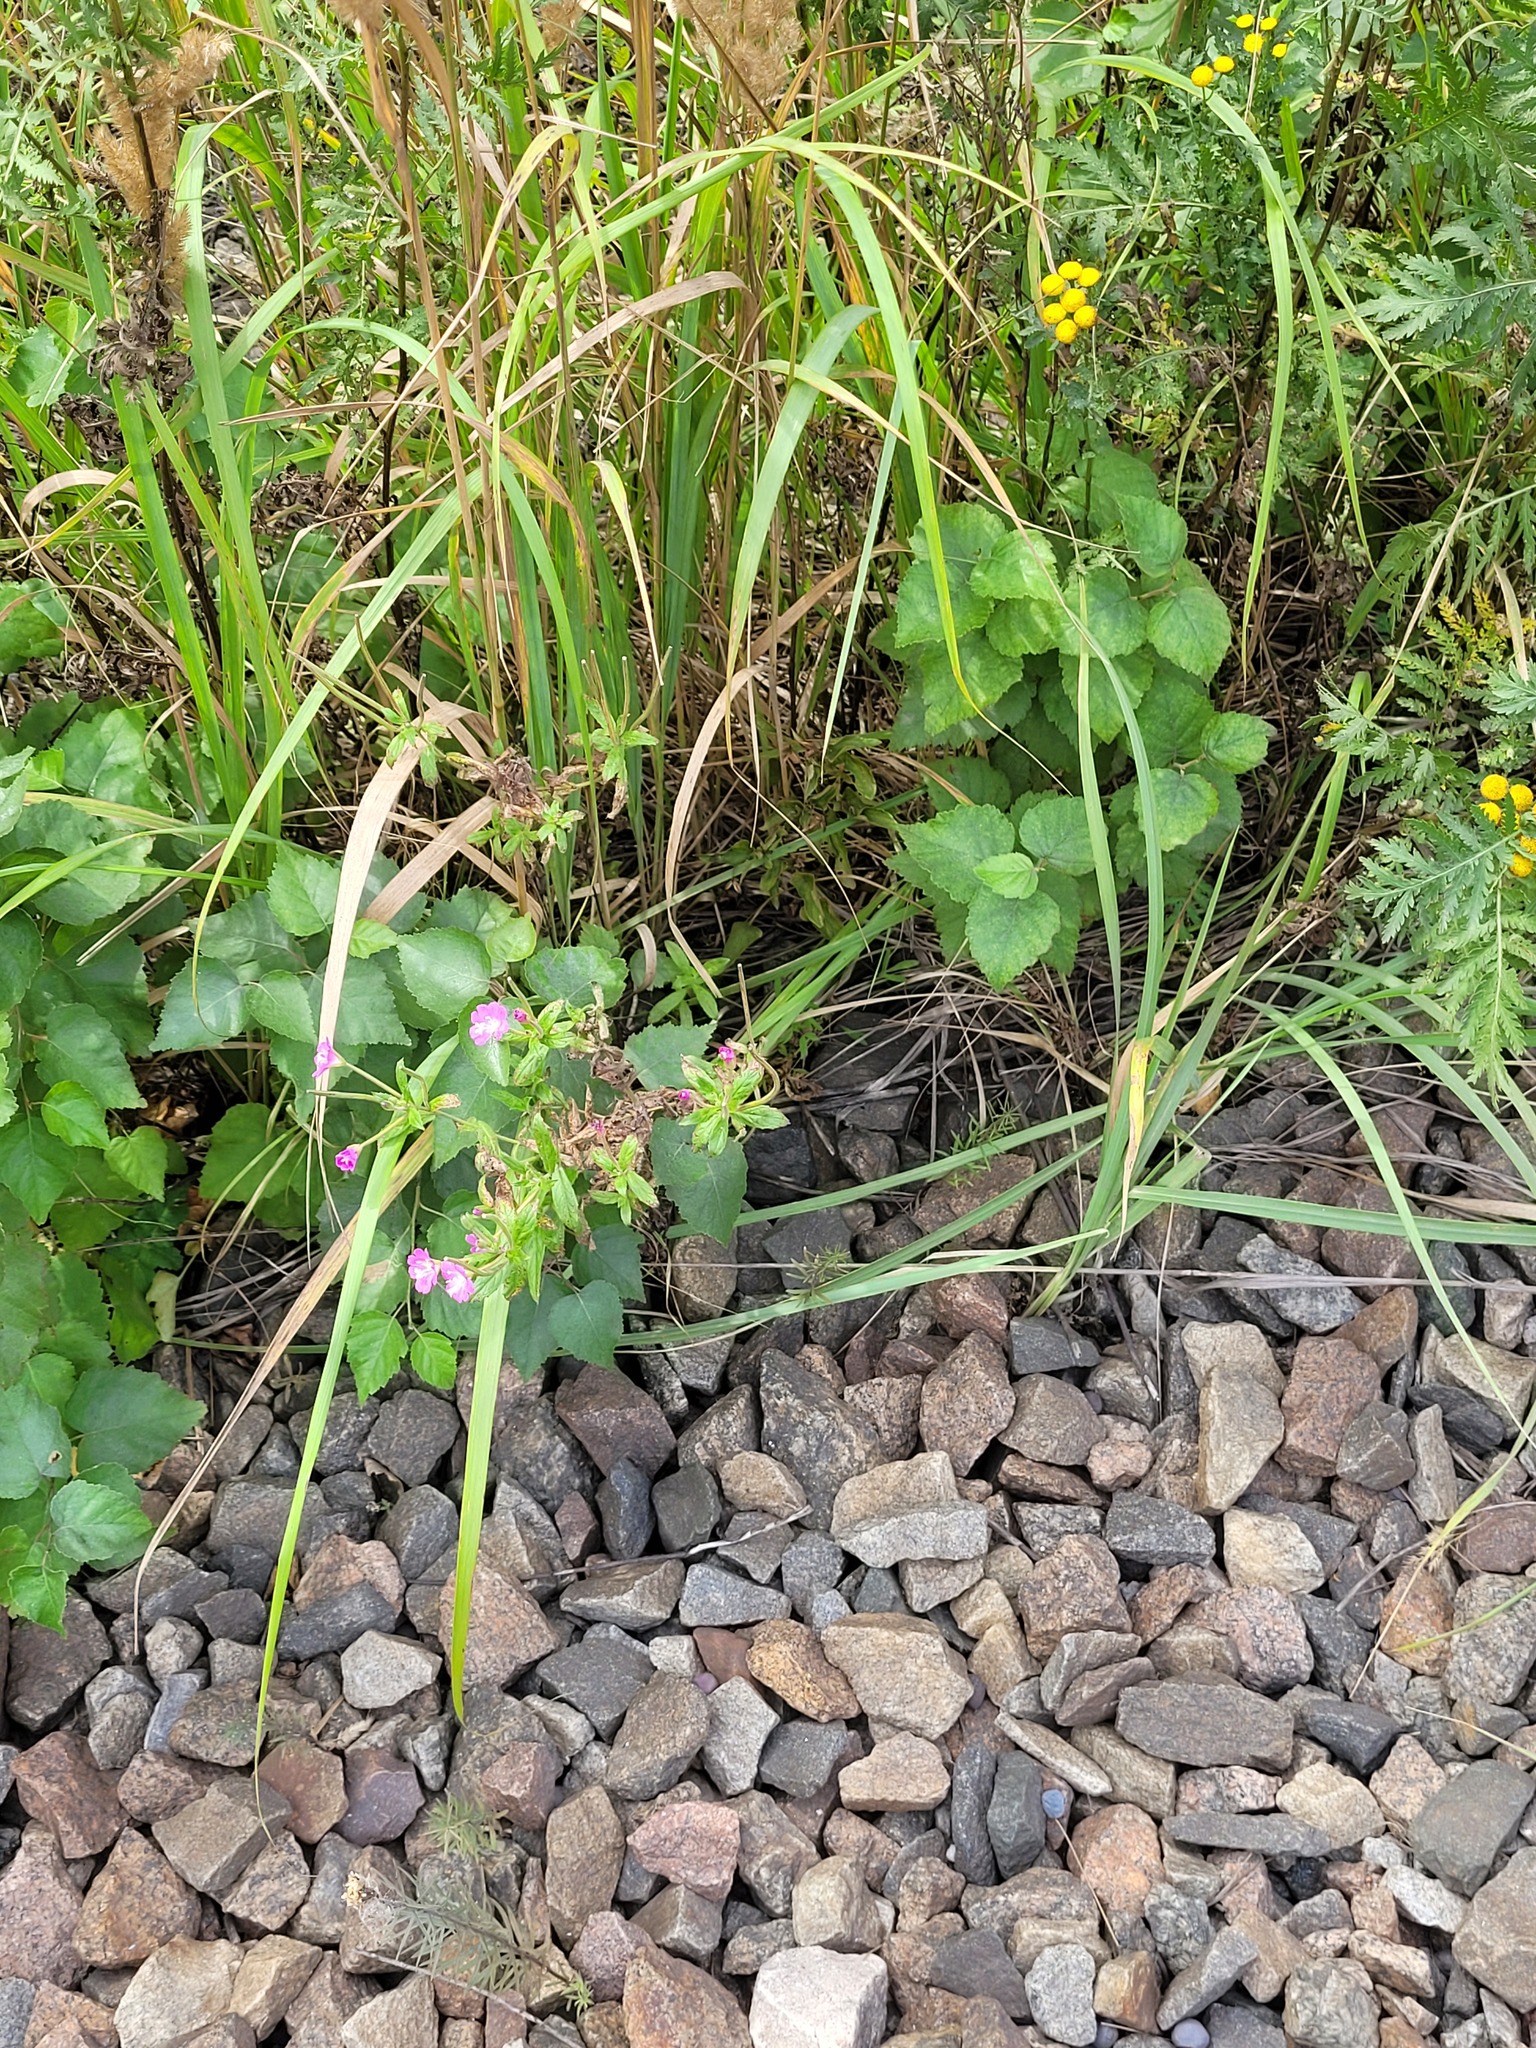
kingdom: Plantae
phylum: Tracheophyta
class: Magnoliopsida
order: Myrtales
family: Onagraceae
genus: Epilobium
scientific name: Epilobium hirsutum
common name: Great willowherb
